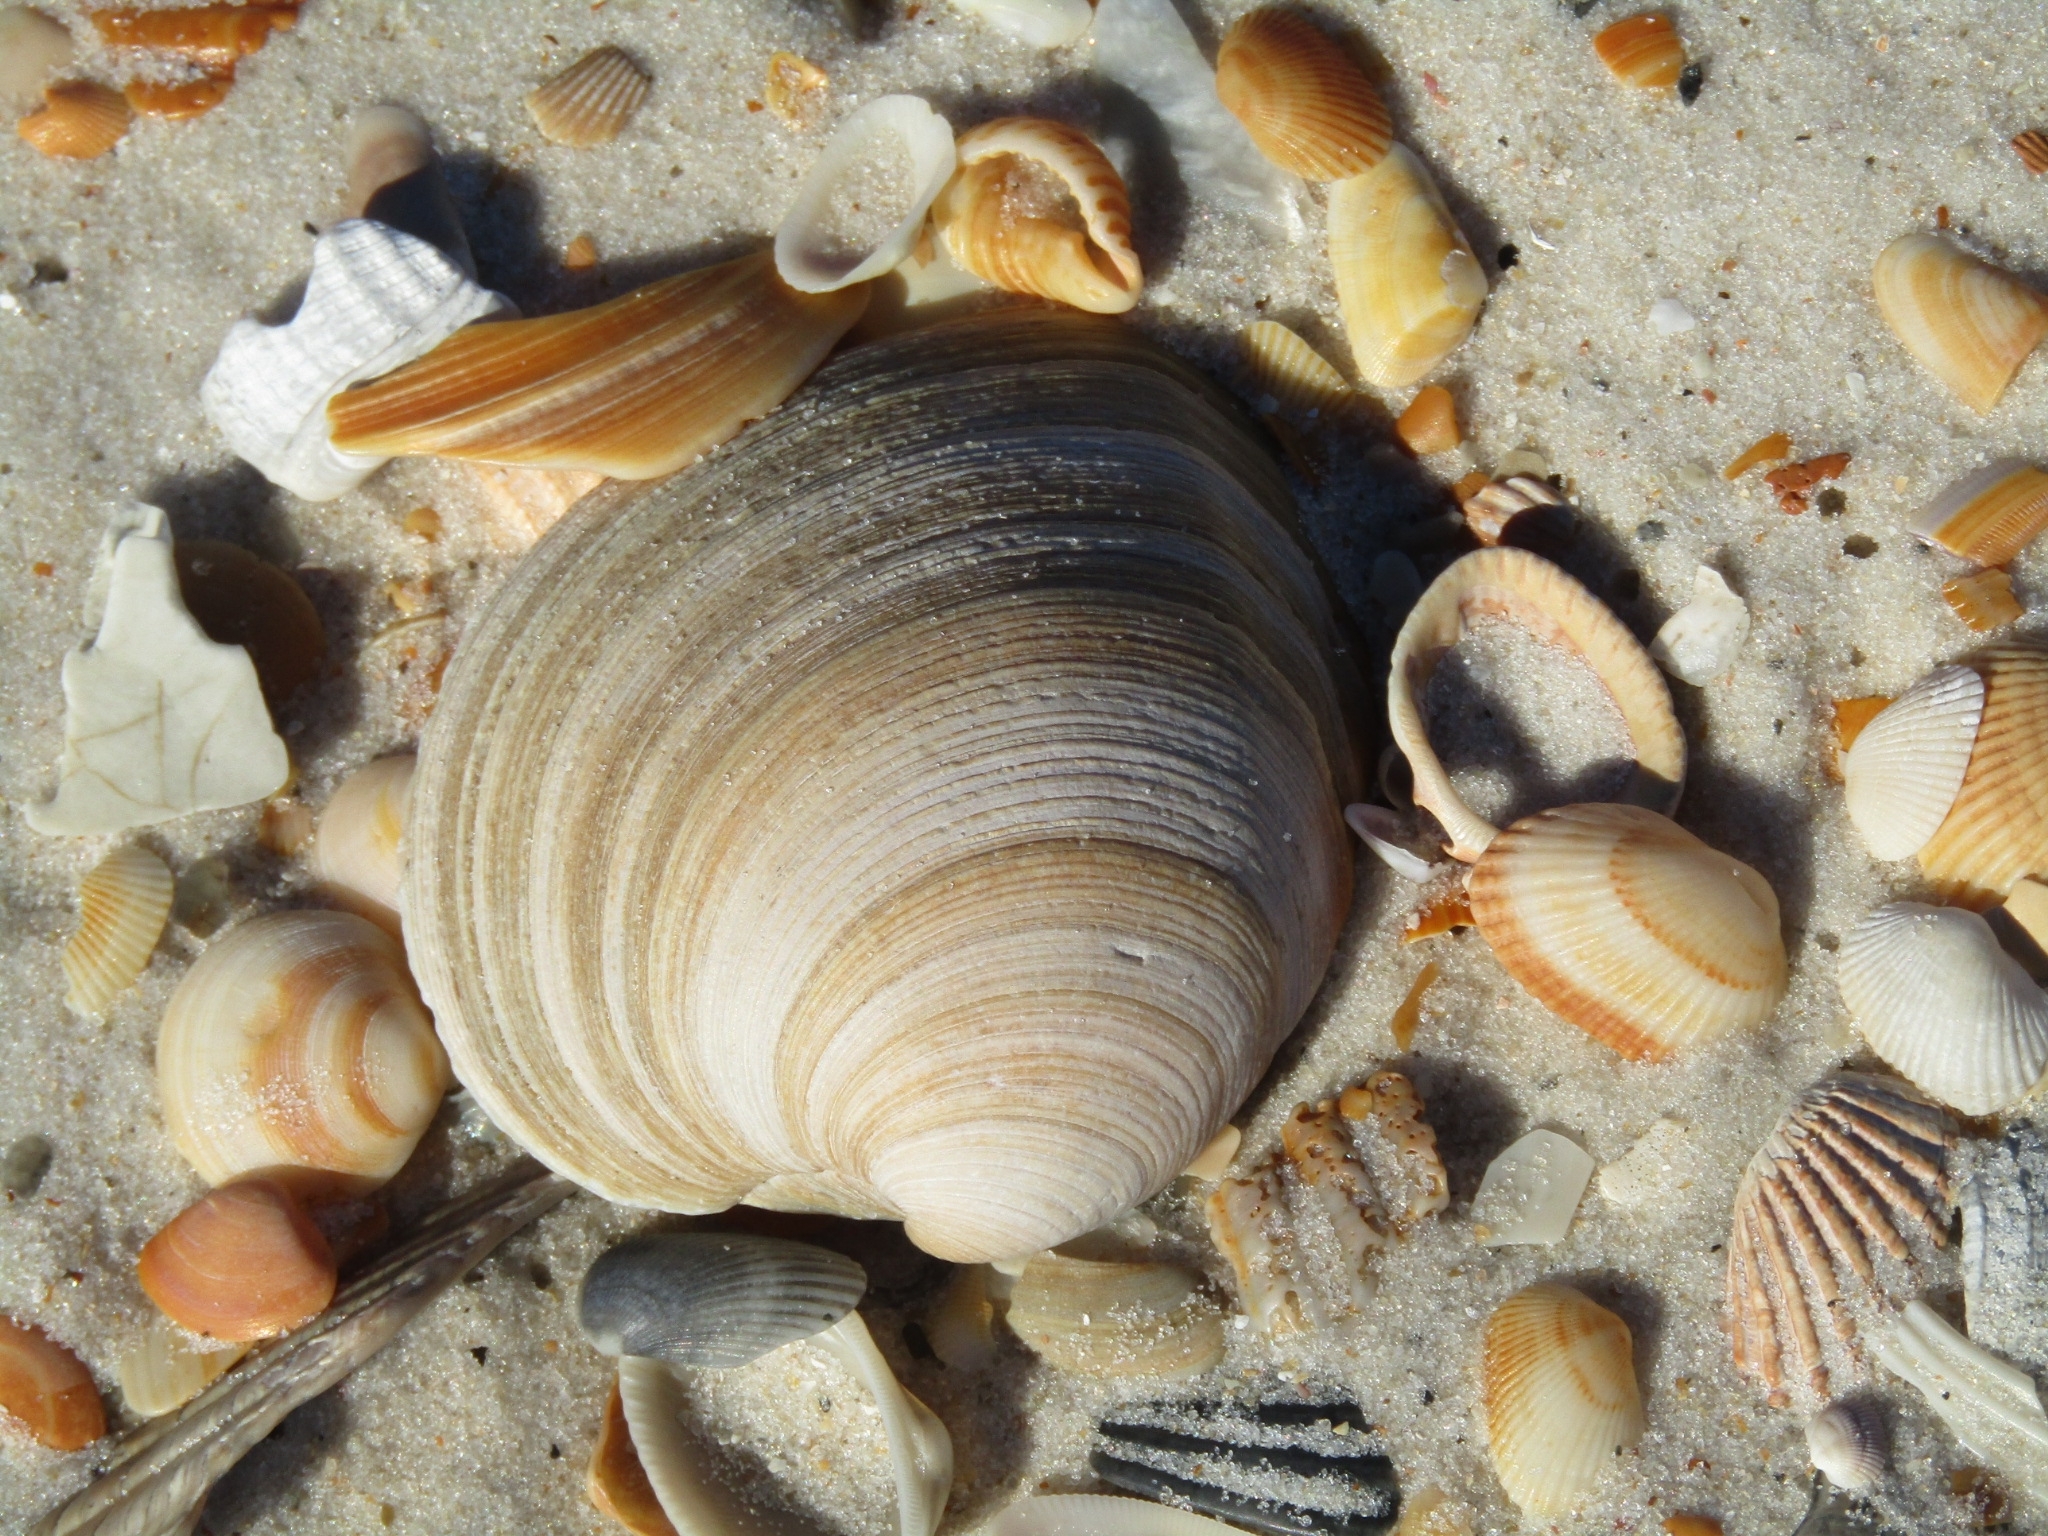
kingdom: Animalia
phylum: Mollusca
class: Bivalvia
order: Venerida
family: Veneridae
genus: Mercenaria
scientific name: Mercenaria campechiensis
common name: Südliche quahog-muschel
